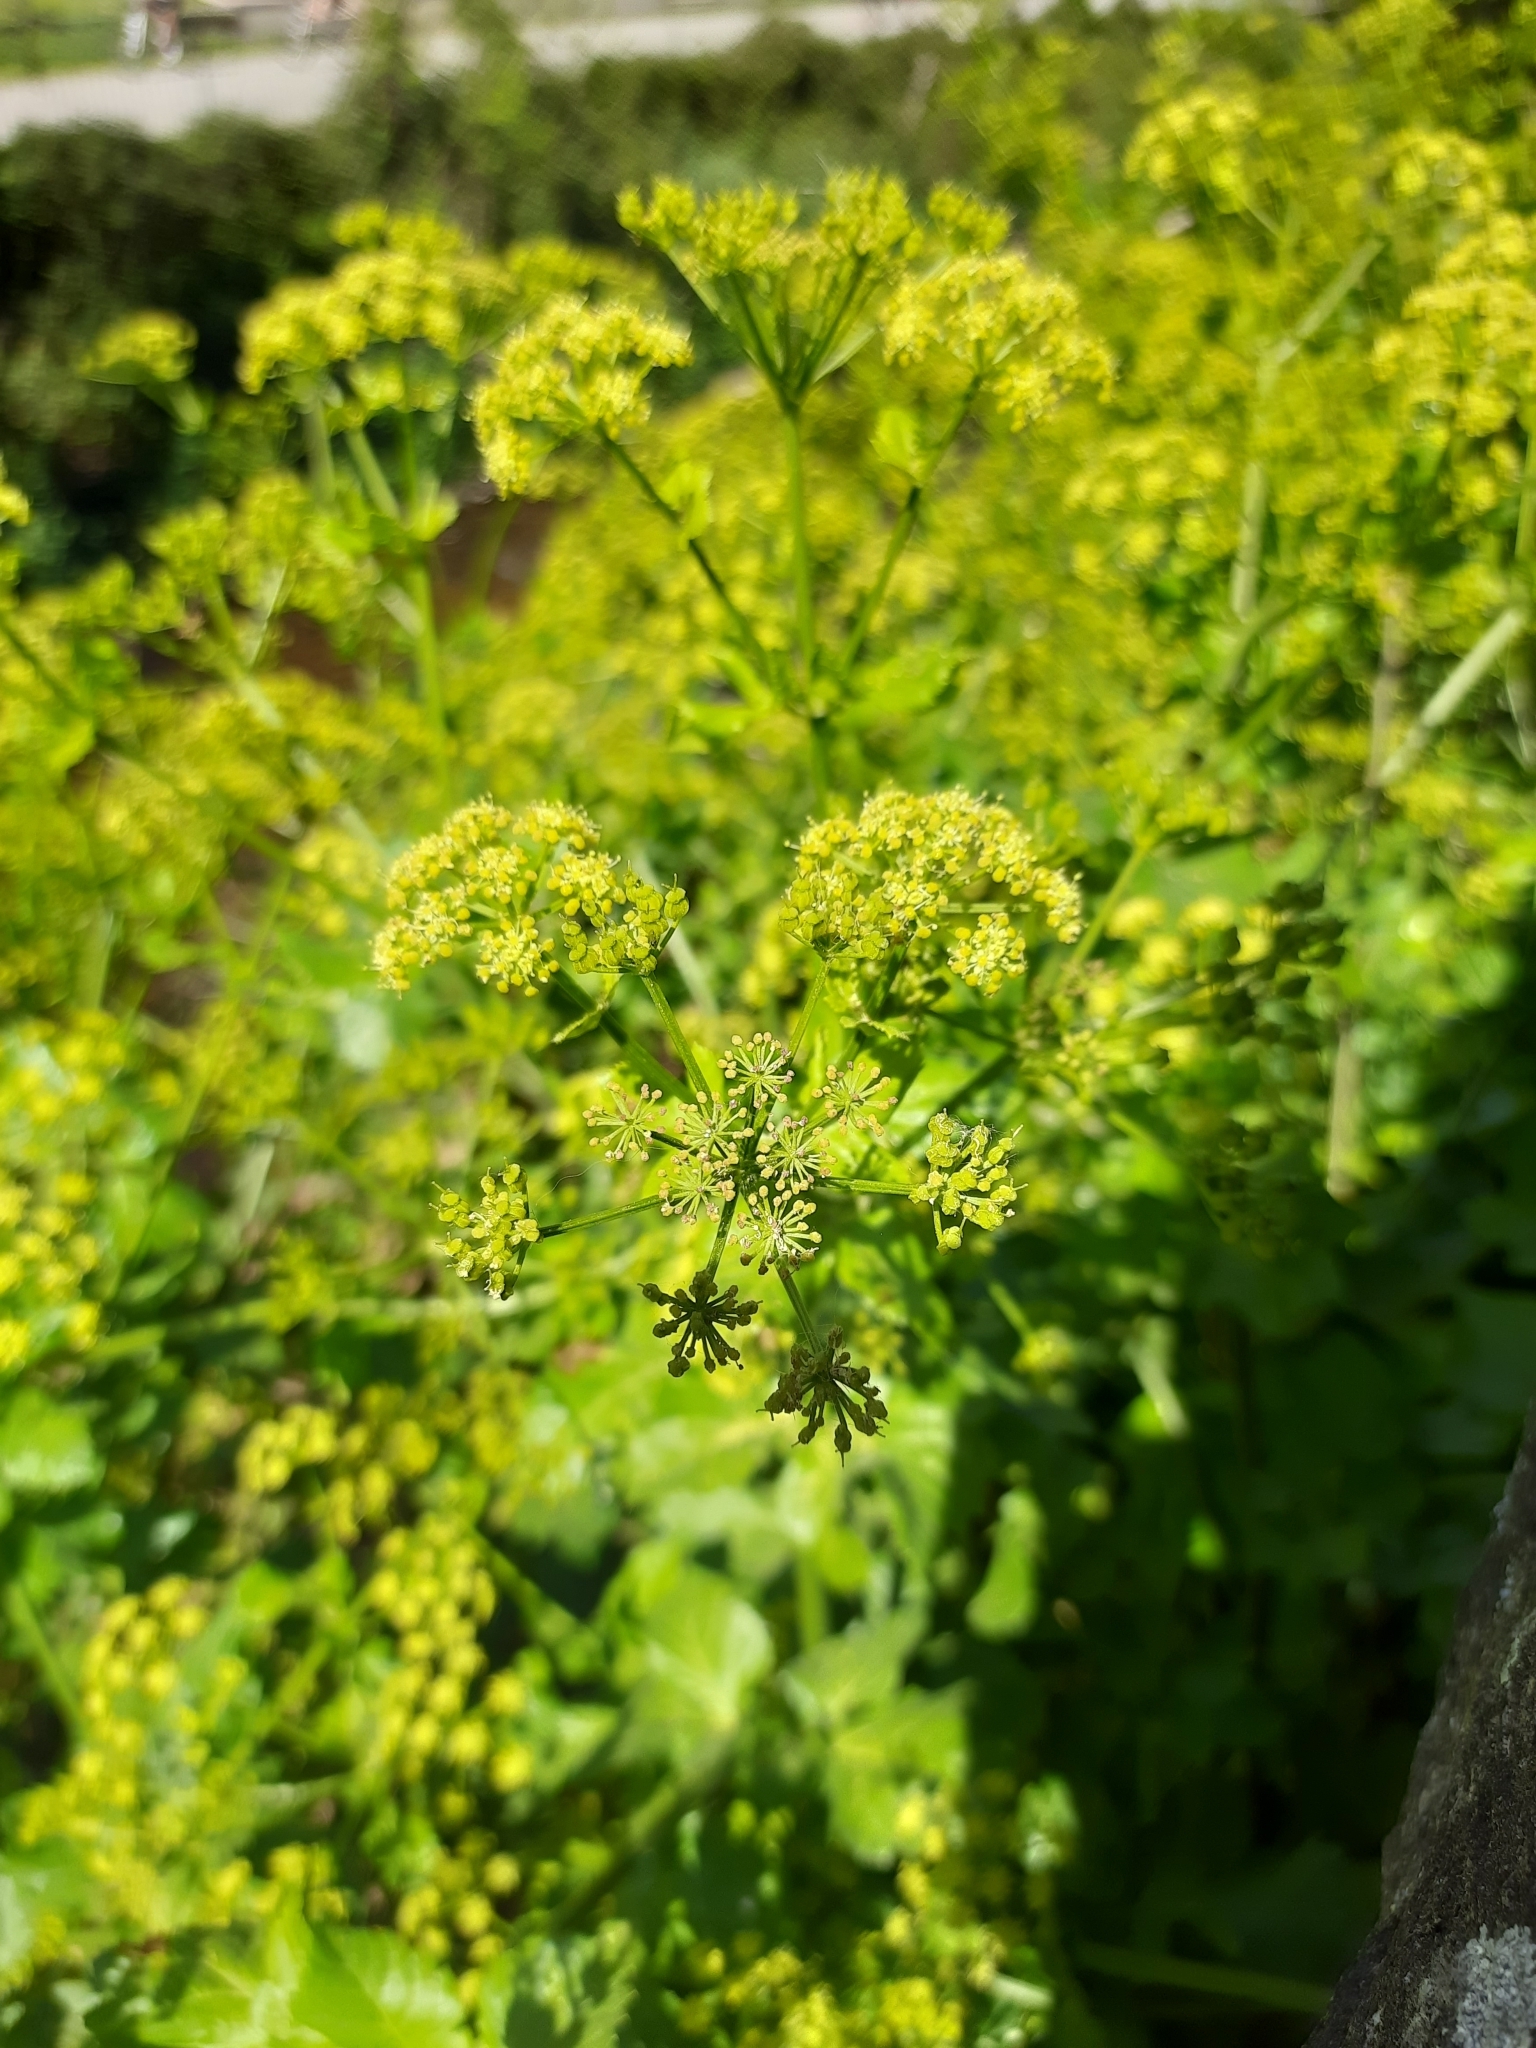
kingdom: Plantae
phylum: Tracheophyta
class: Magnoliopsida
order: Apiales
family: Apiaceae
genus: Smyrnium
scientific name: Smyrnium olusatrum
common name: Alexanders
